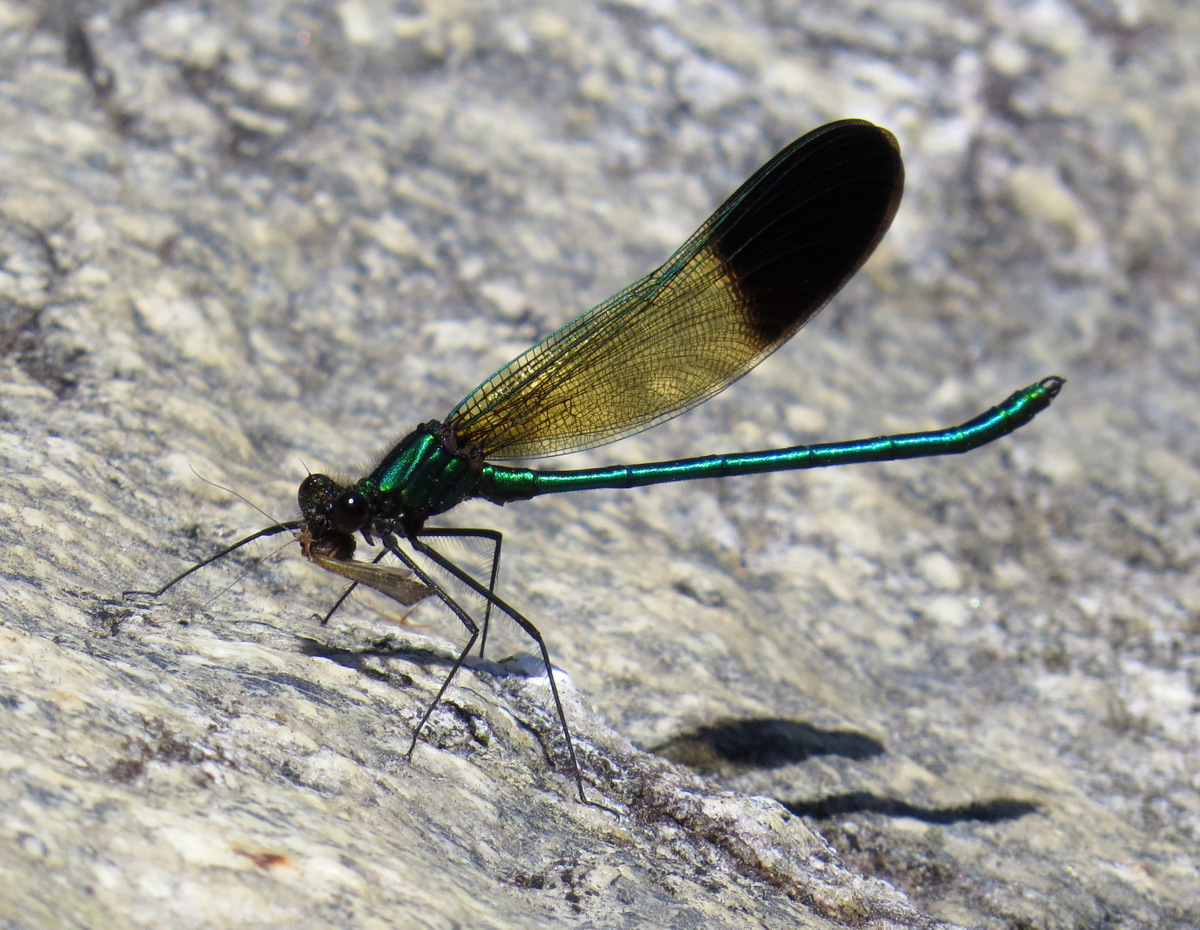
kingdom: Animalia
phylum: Arthropoda
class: Insecta
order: Odonata
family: Calopterygidae
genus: Calopteryx
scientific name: Calopteryx aequabilis
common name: River jewelwing
